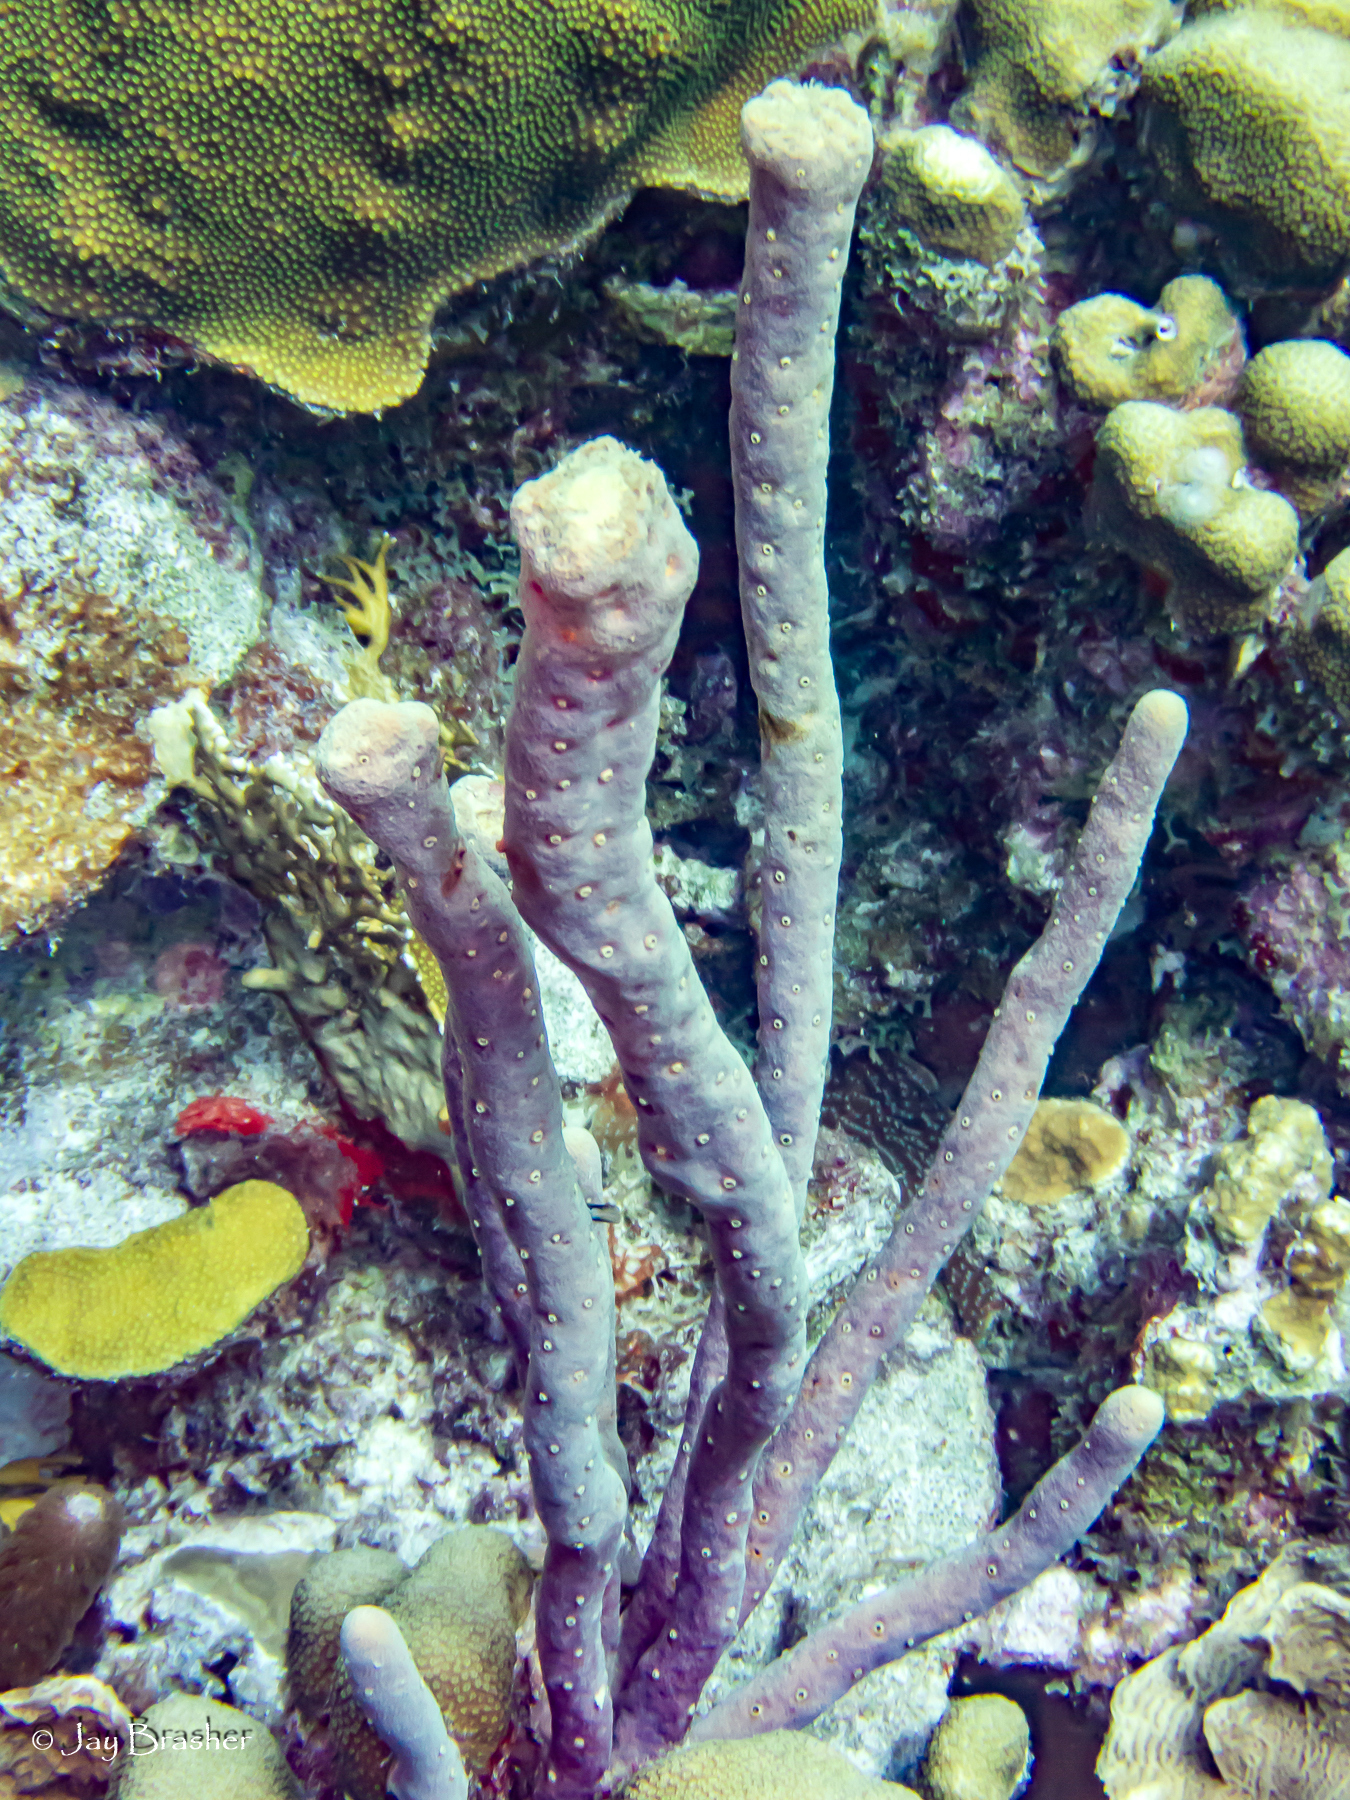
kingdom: Animalia
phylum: Porifera
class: Demospongiae
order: Verongiida
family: Aplysinidae
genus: Aplysina
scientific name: Aplysina cauliformis
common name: Branching candle sponge
